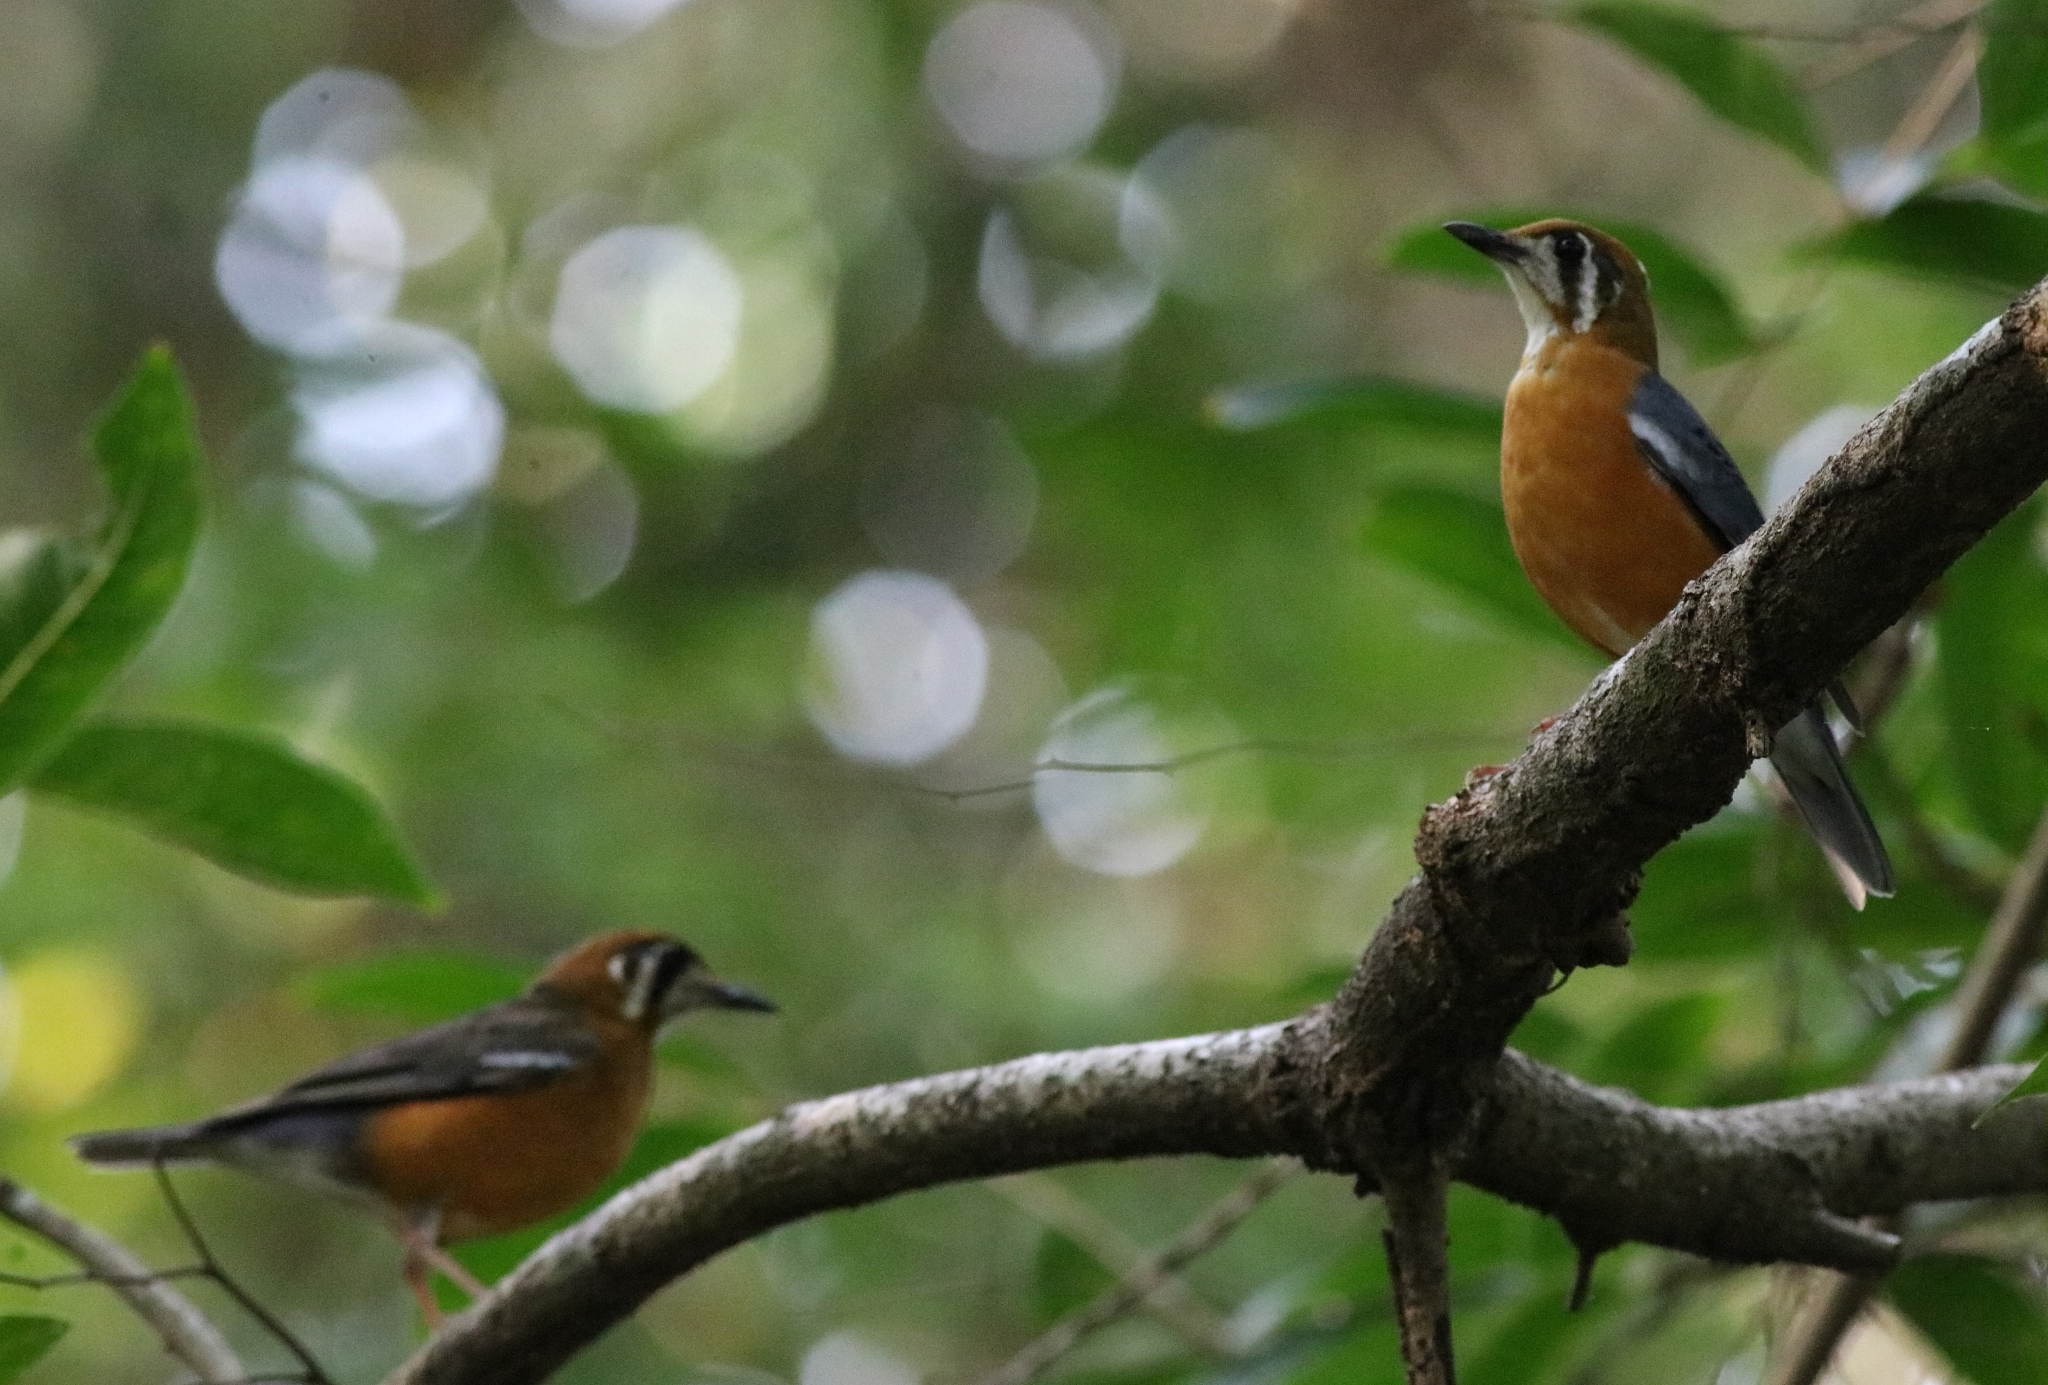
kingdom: Animalia
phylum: Chordata
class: Aves
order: Passeriformes
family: Turdidae
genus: Geokichla
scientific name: Geokichla citrina
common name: Orange-headed thrush
